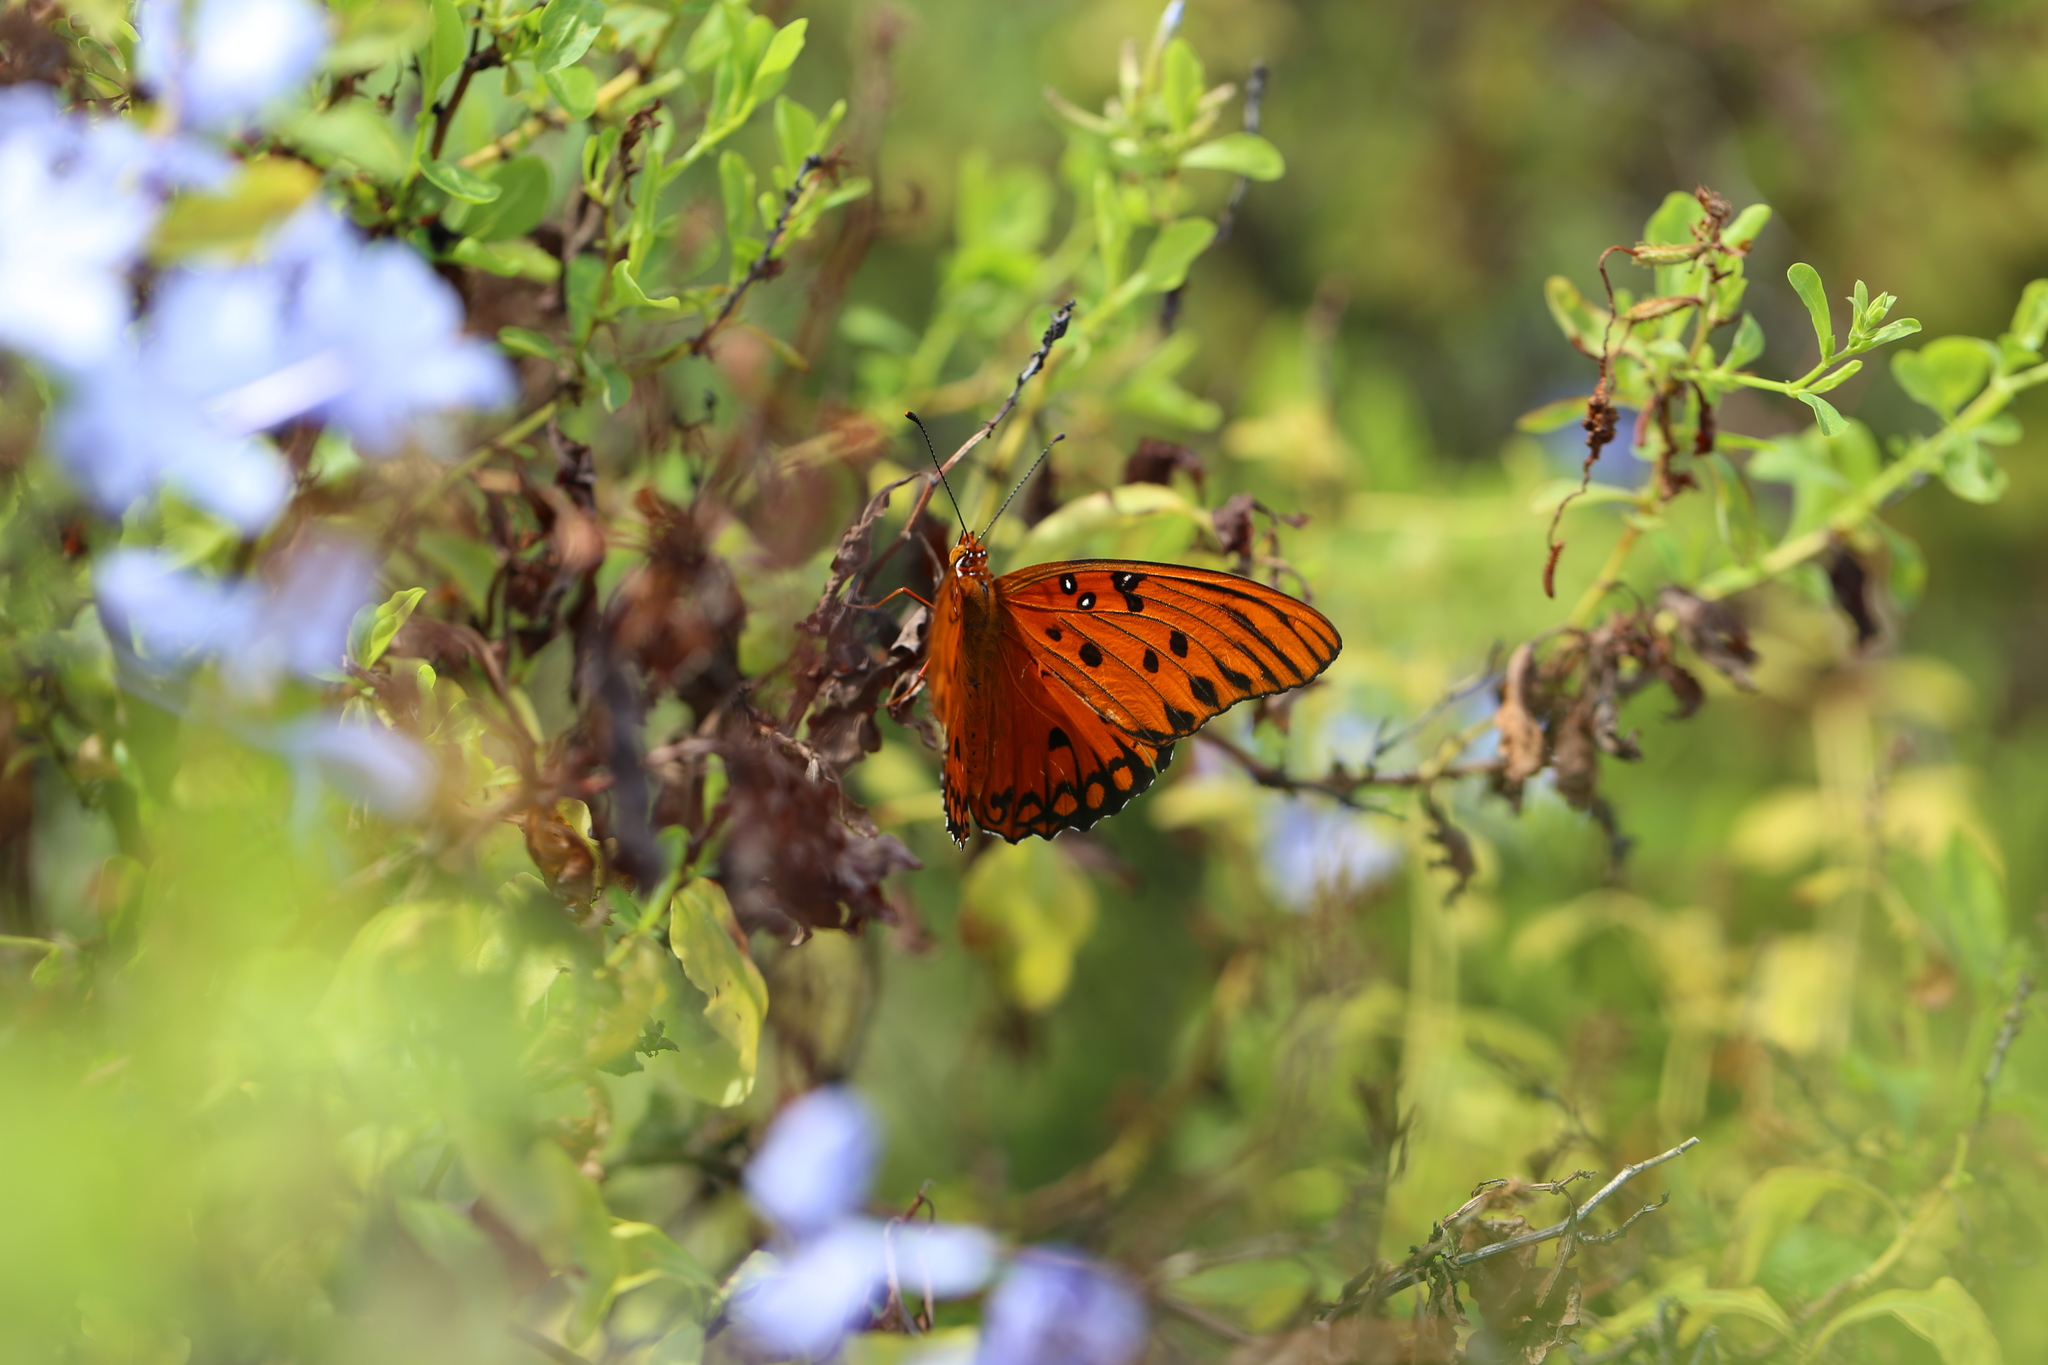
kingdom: Animalia
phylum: Arthropoda
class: Insecta
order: Lepidoptera
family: Nymphalidae
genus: Dione
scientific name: Dione vanillae
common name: Gulf fritillary
